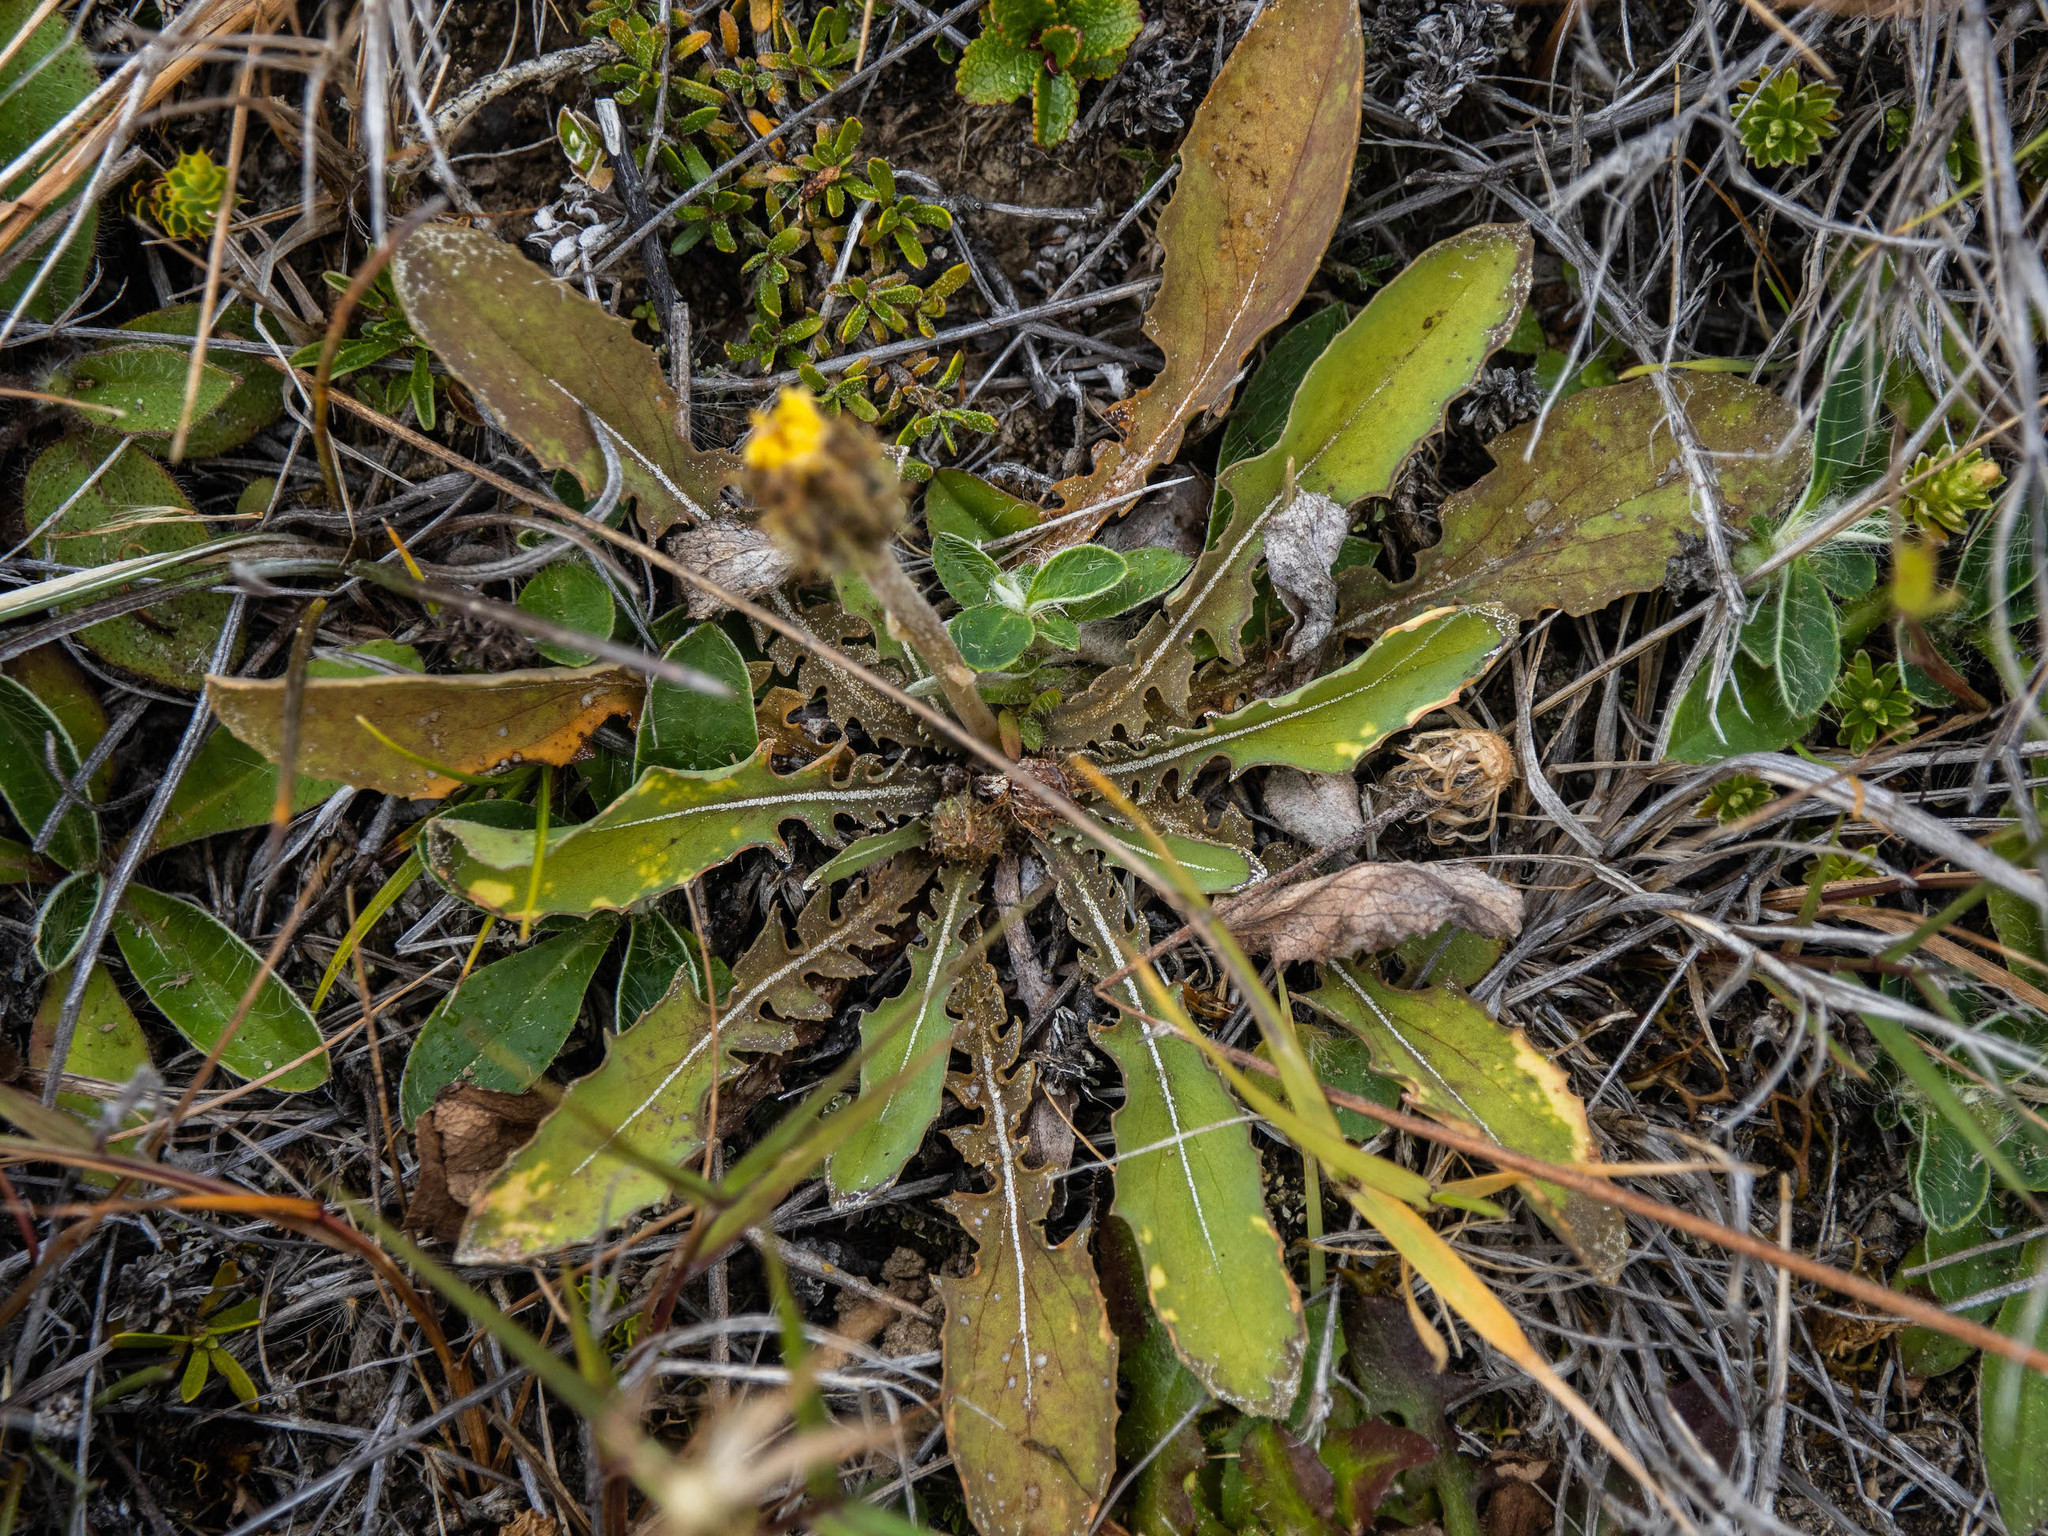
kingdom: Plantae
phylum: Tracheophyta
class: Magnoliopsida
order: Asterales
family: Asteraceae
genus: Sonchus
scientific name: Sonchus novae-zelandiae
